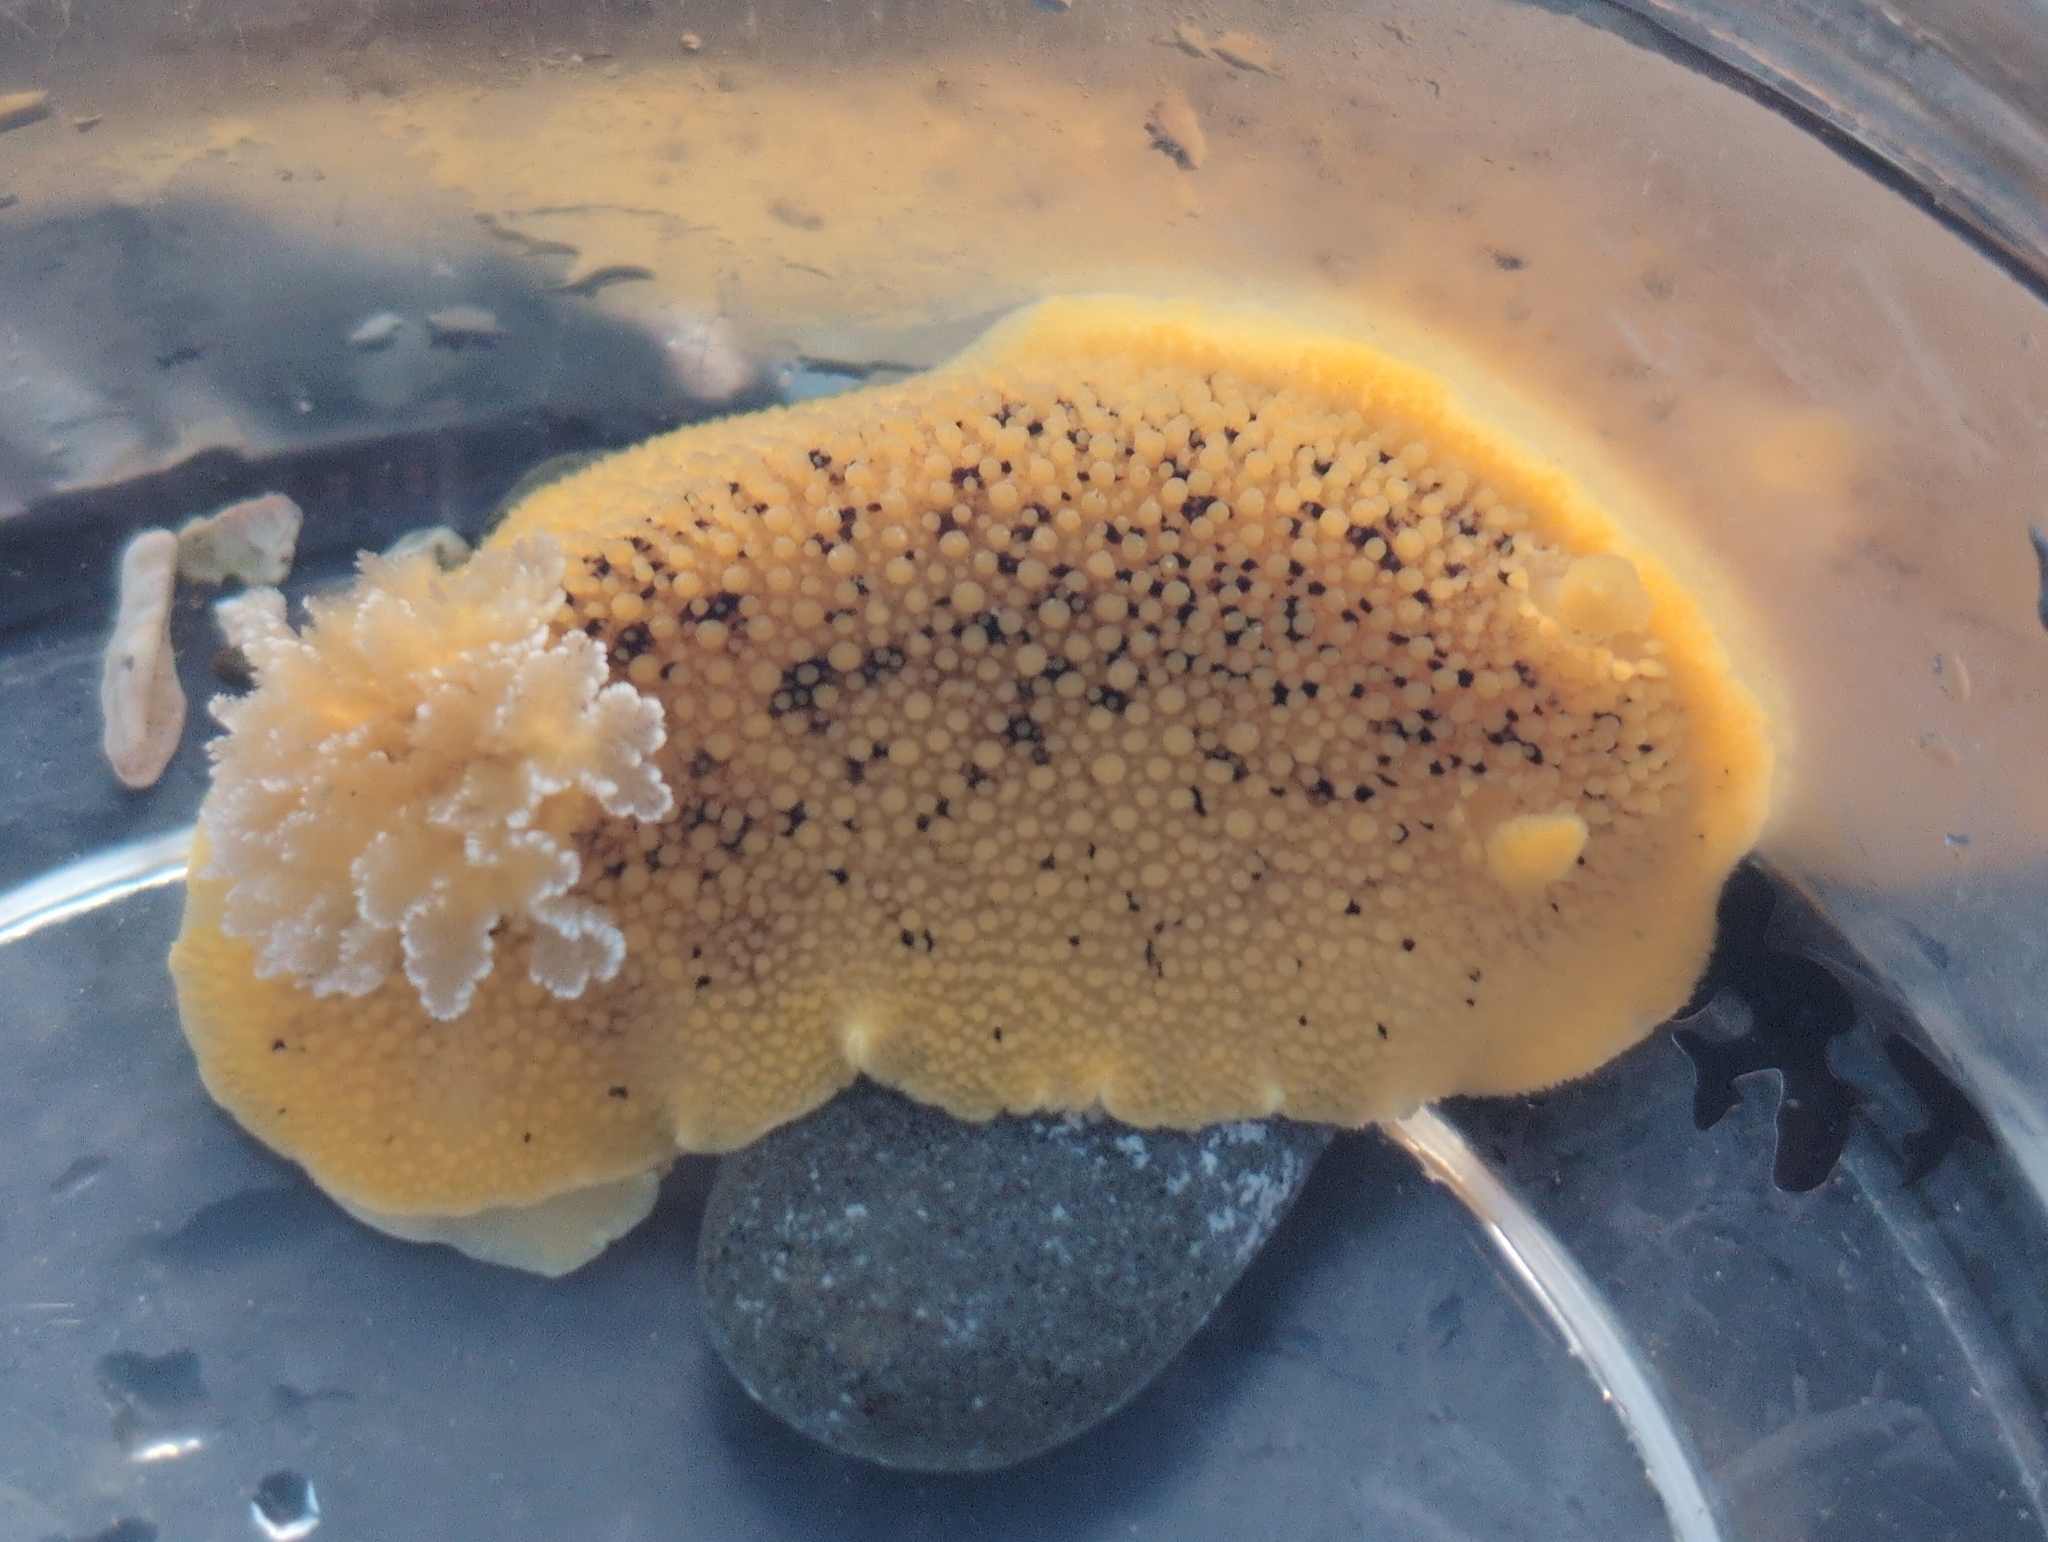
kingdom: Animalia
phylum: Mollusca
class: Gastropoda
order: Nudibranchia
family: Discodorididae
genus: Peltodoris
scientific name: Peltodoris nobilis
